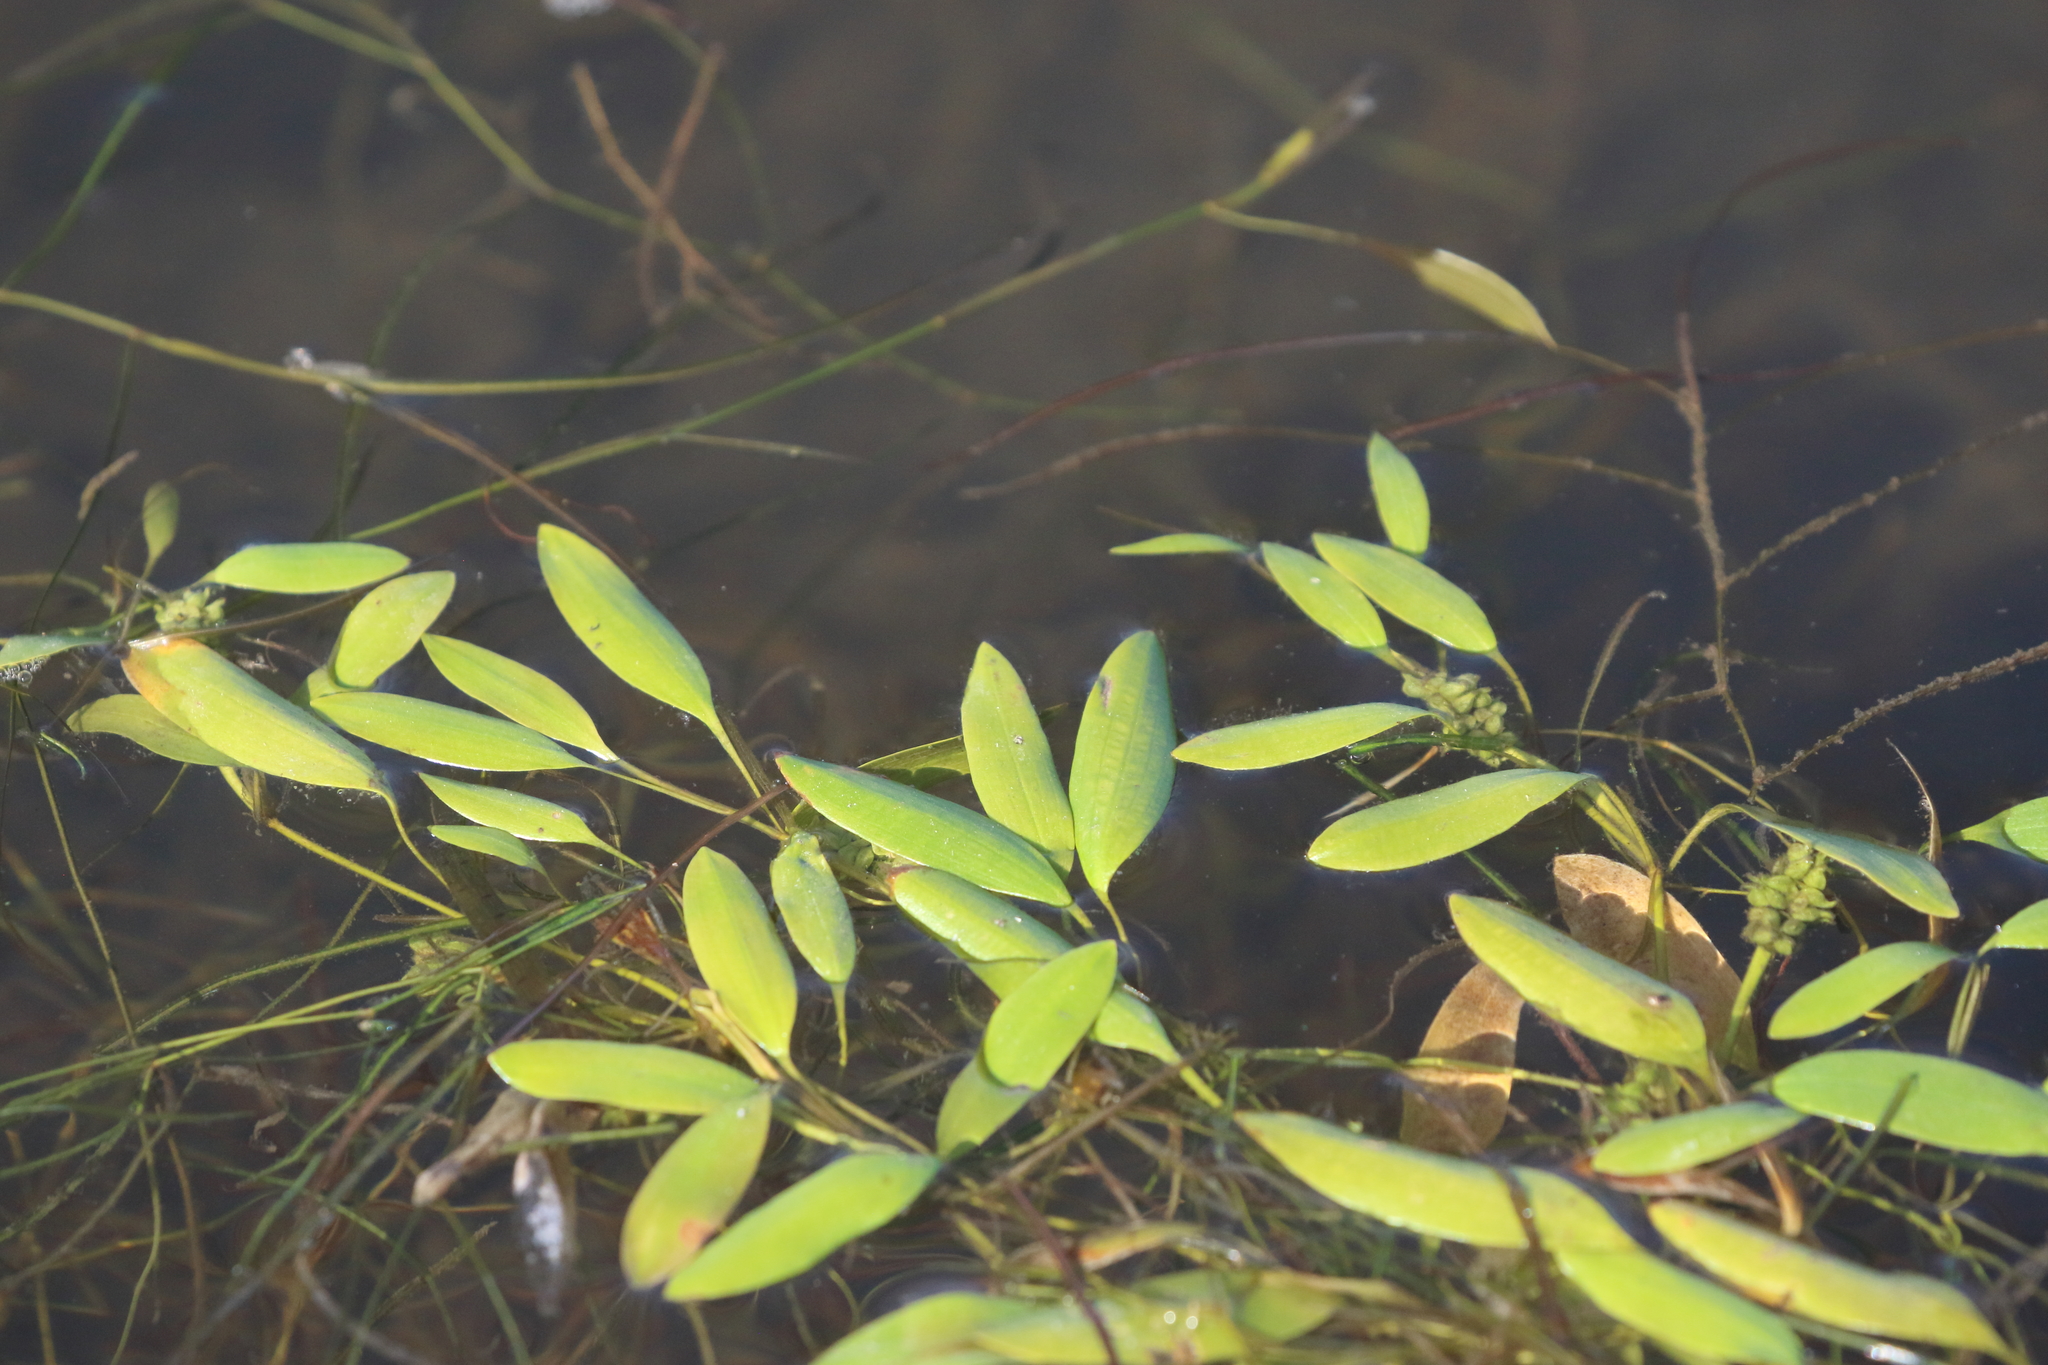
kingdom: Plantae
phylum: Tracheophyta
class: Liliopsida
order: Alismatales
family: Potamogetonaceae
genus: Potamogeton
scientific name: Potamogeton octandrus
